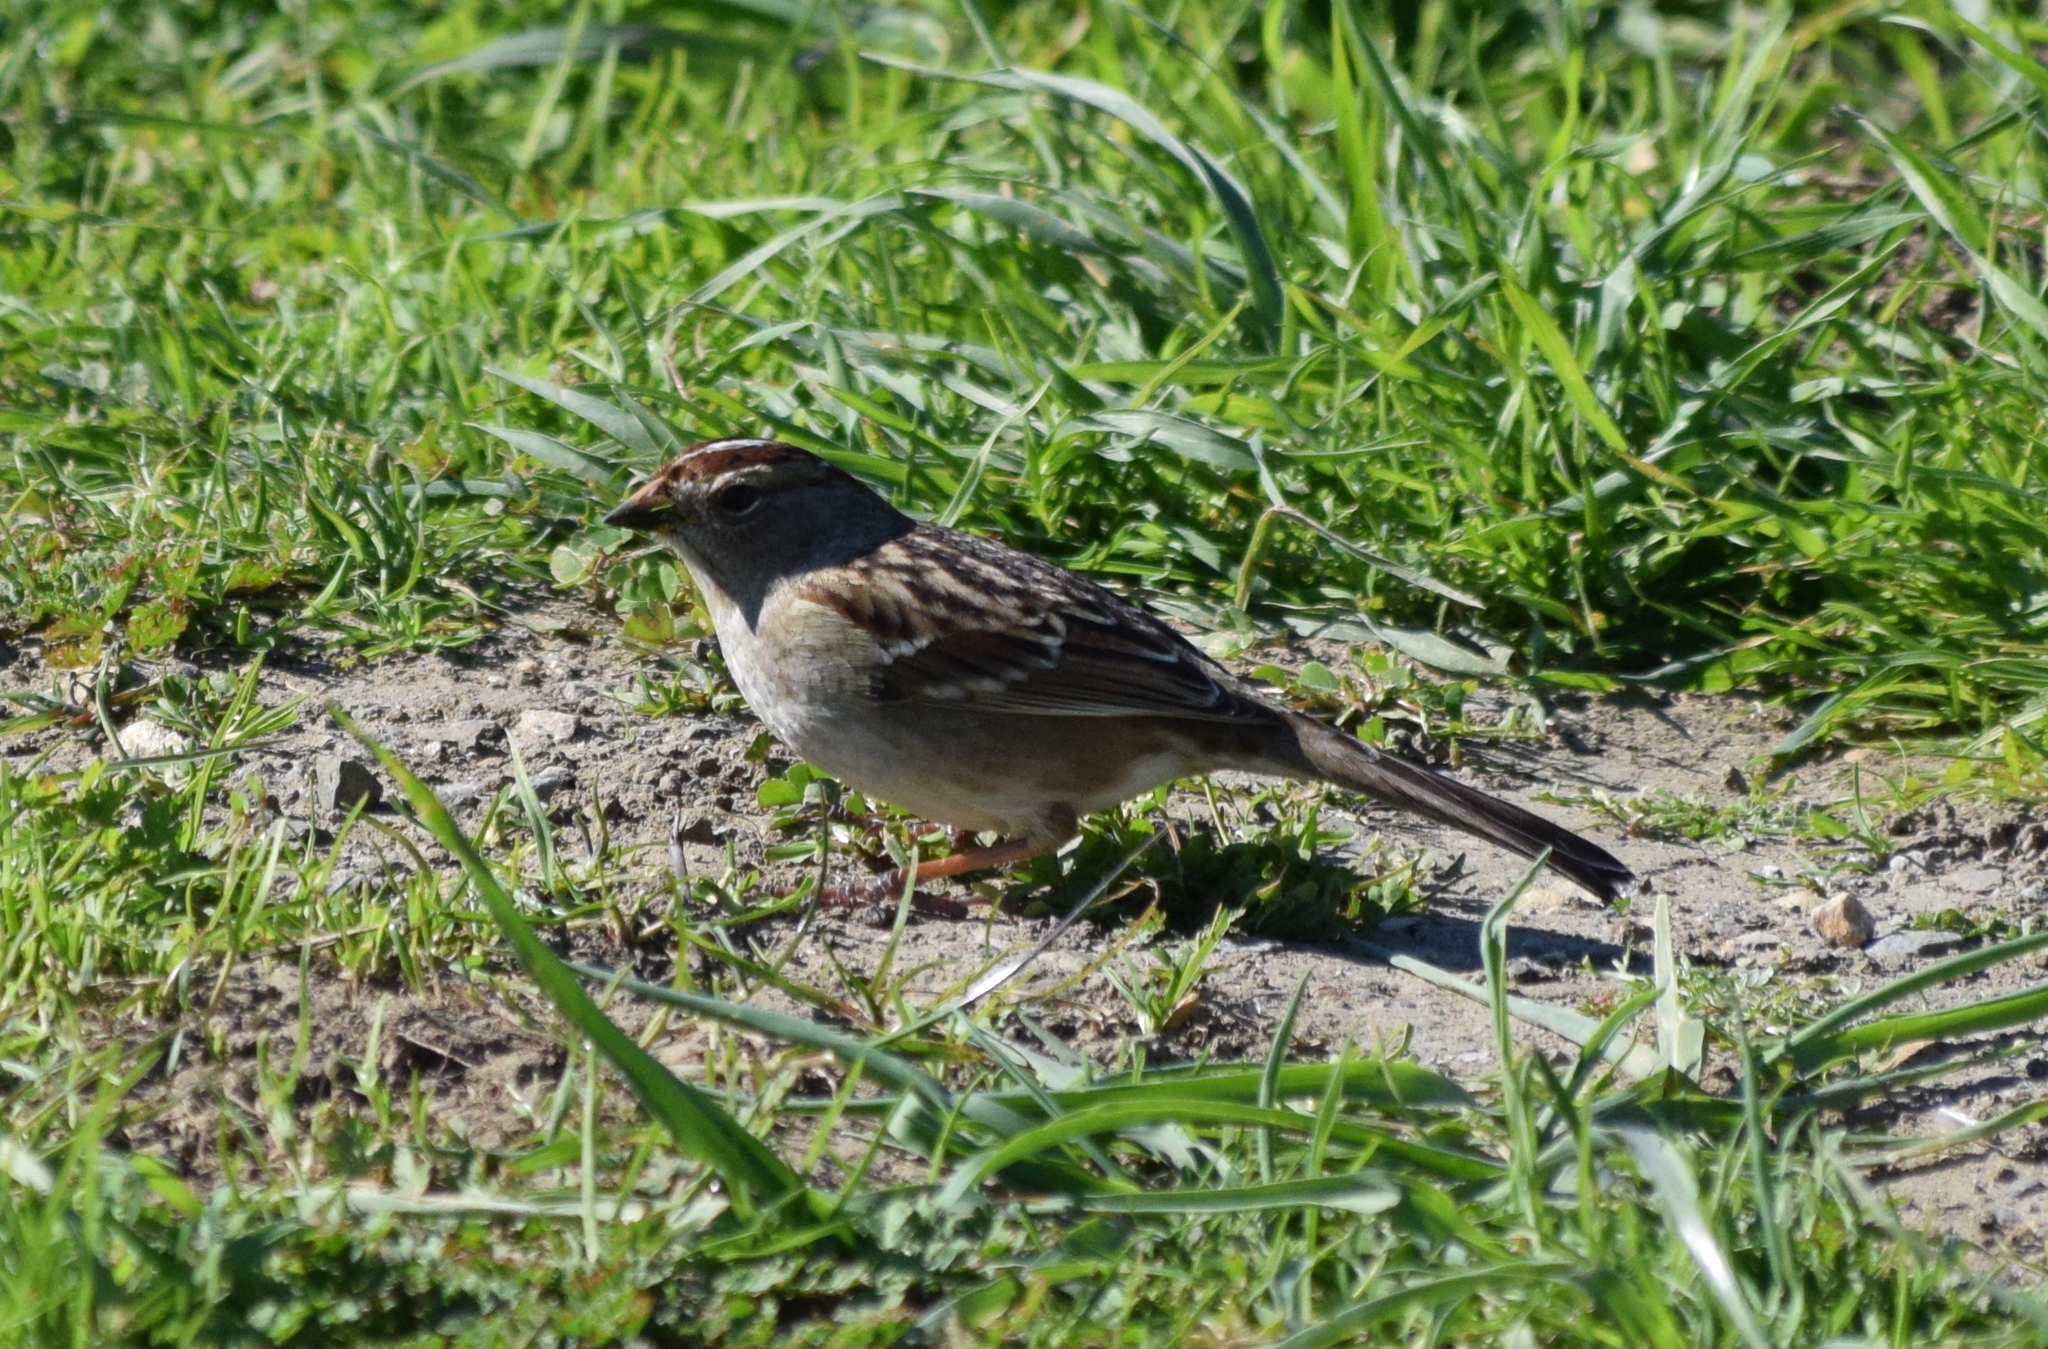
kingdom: Animalia
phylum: Chordata
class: Aves
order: Passeriformes
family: Passerellidae
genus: Zonotrichia
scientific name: Zonotrichia leucophrys
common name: White-crowned sparrow
